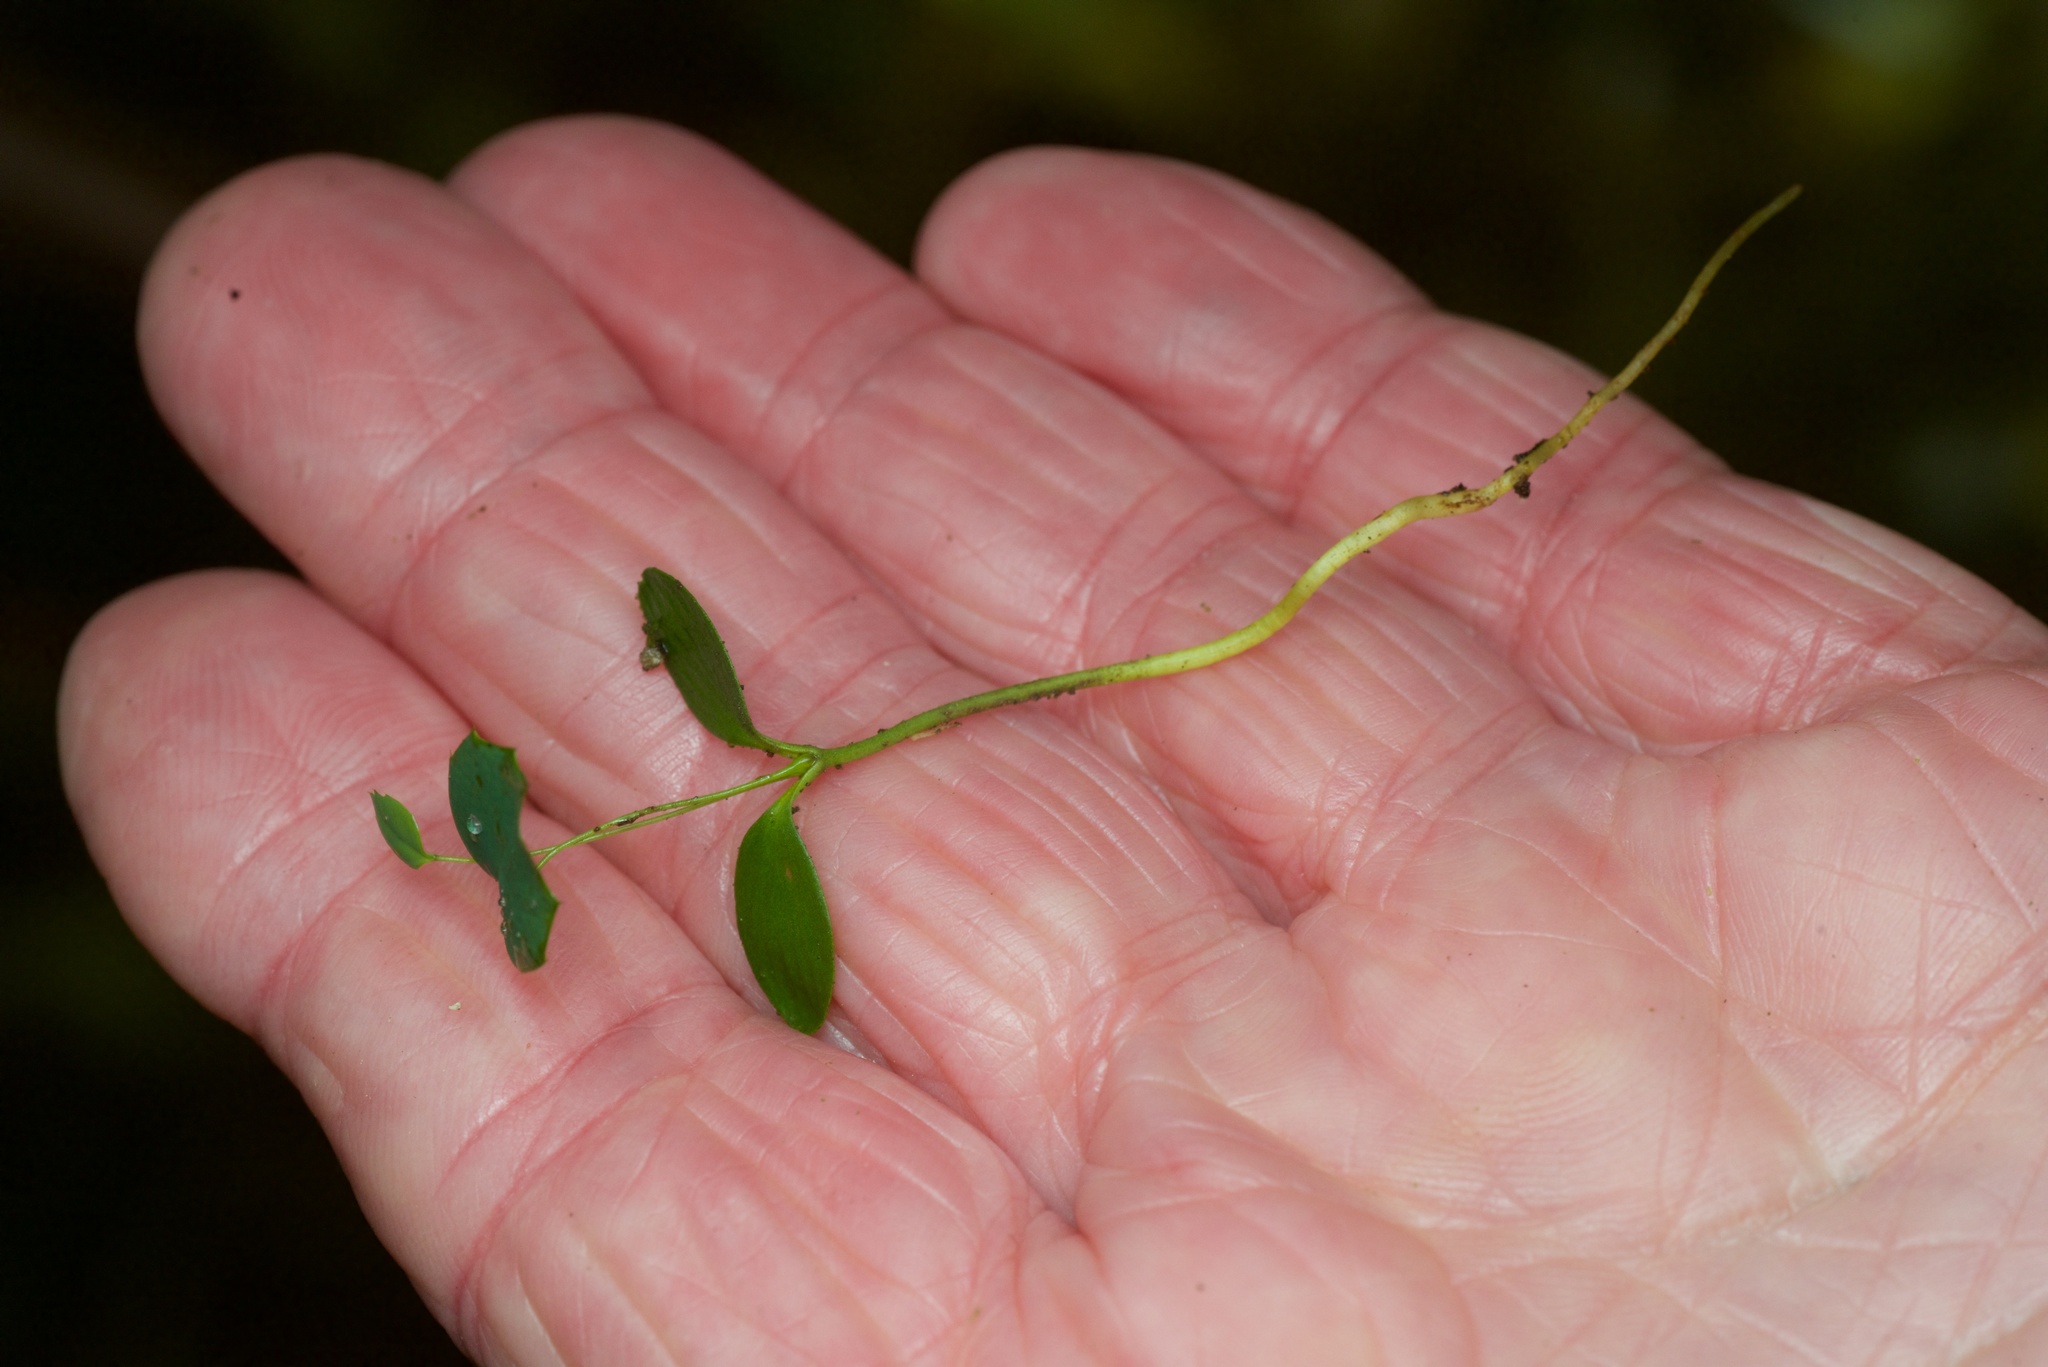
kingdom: Plantae
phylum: Tracheophyta
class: Magnoliopsida
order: Ranunculales
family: Berberidaceae
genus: Berberis
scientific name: Berberis darwinii
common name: Darwin's barberry
